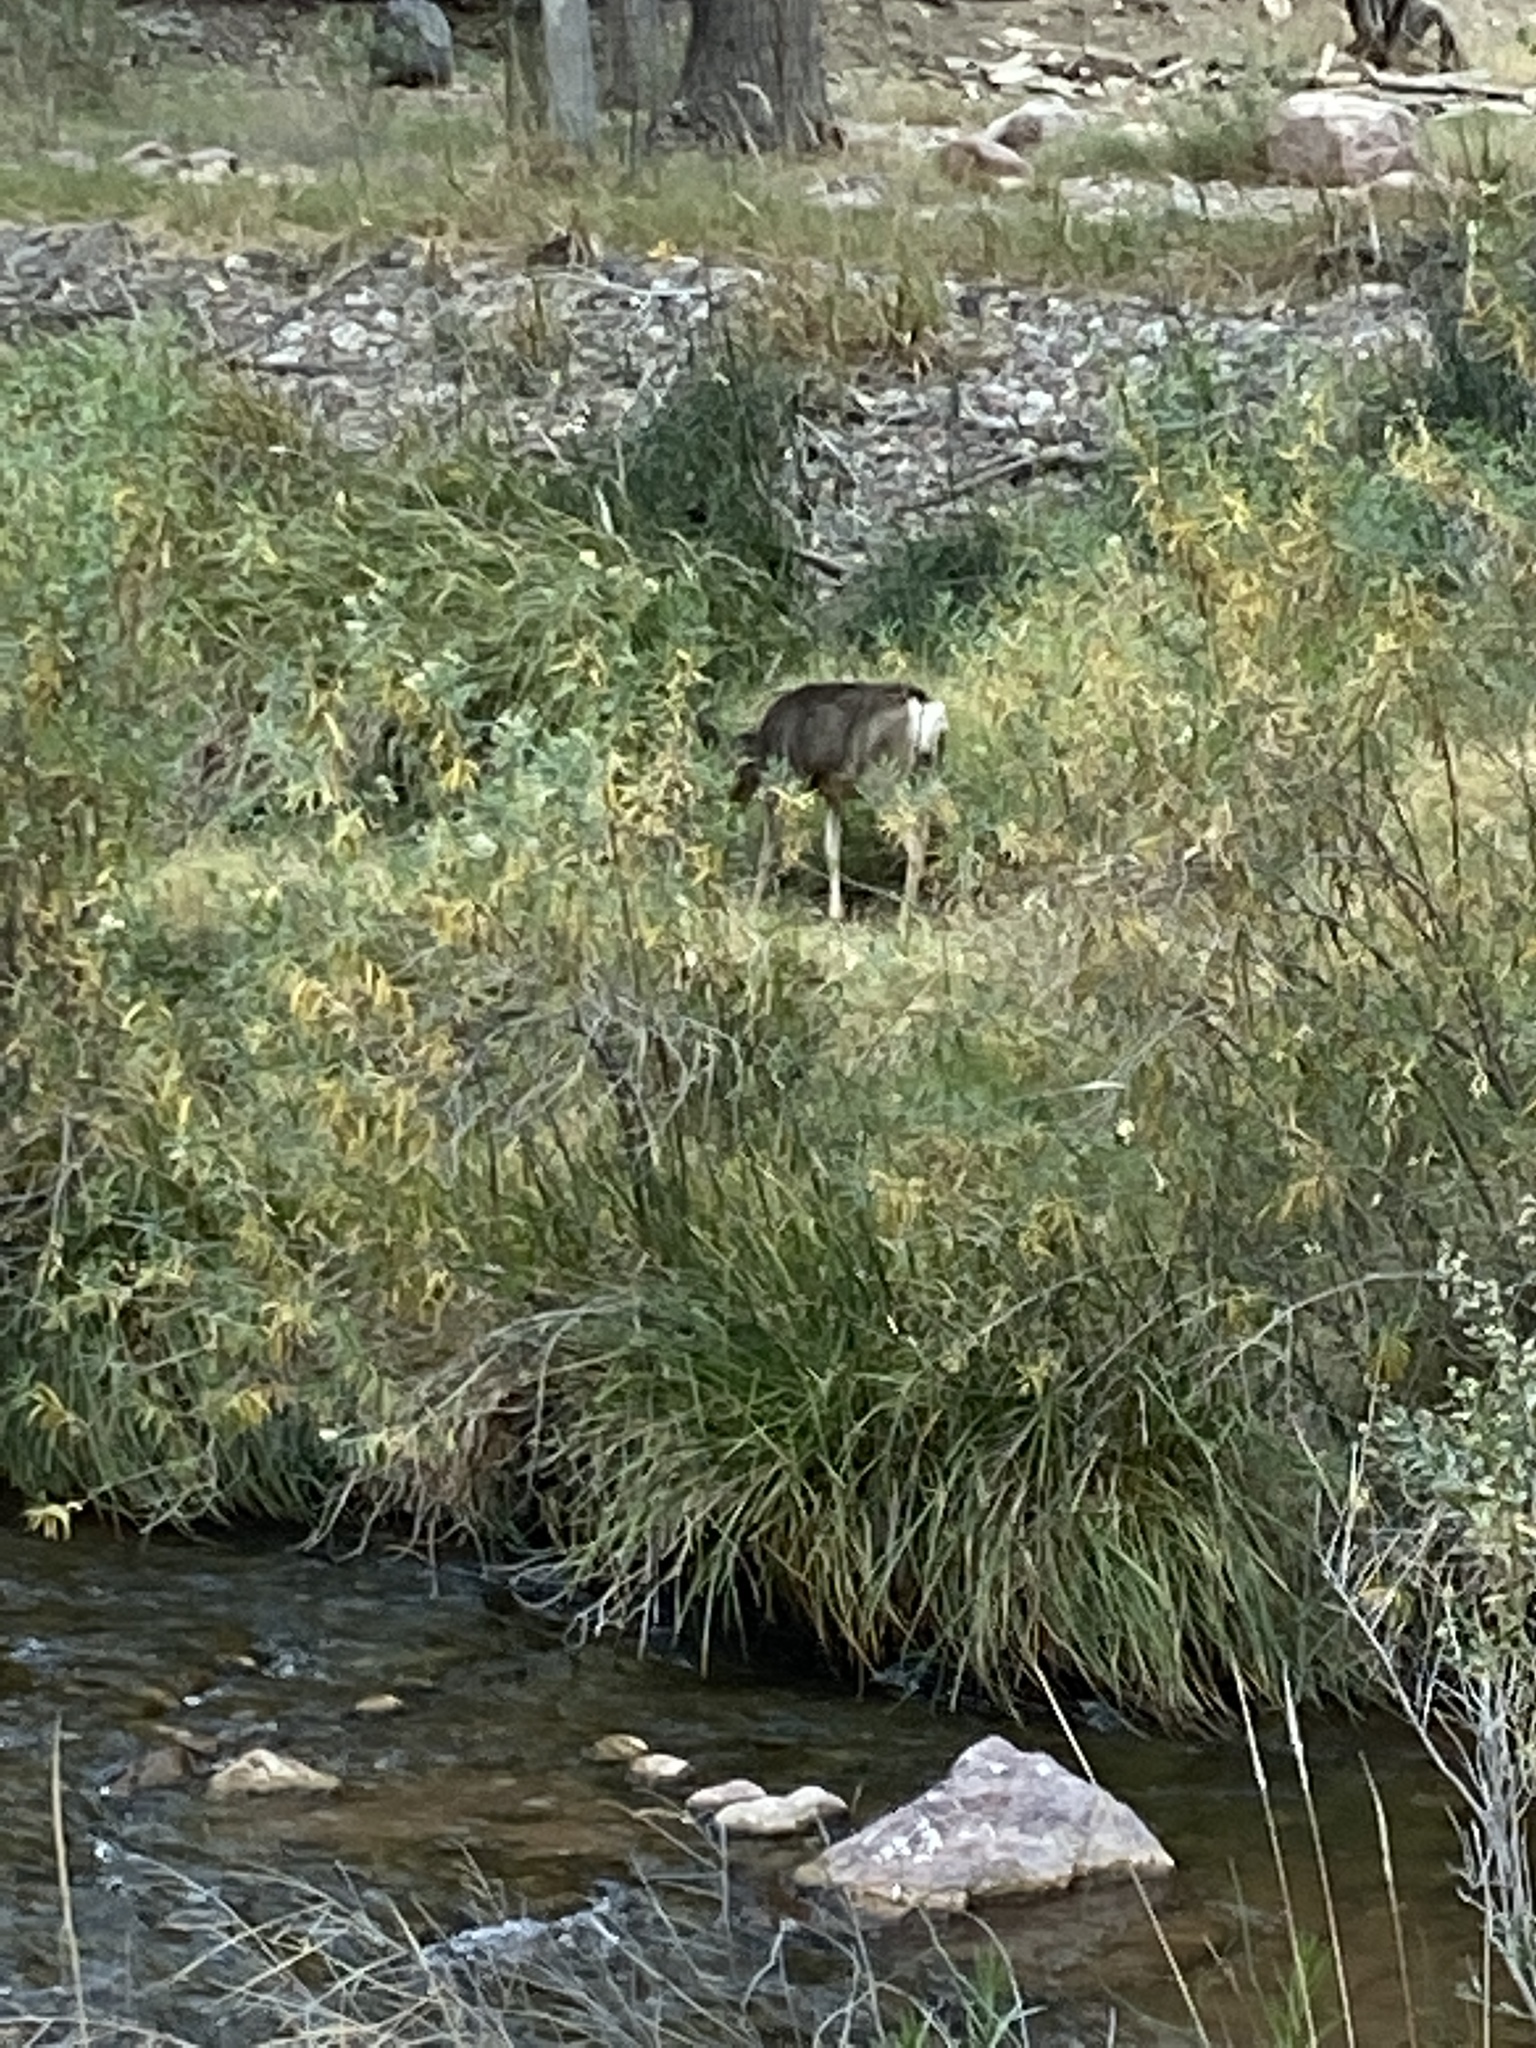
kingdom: Animalia
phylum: Chordata
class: Mammalia
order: Artiodactyla
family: Cervidae
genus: Odocoileus
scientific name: Odocoileus hemionus
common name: Mule deer
